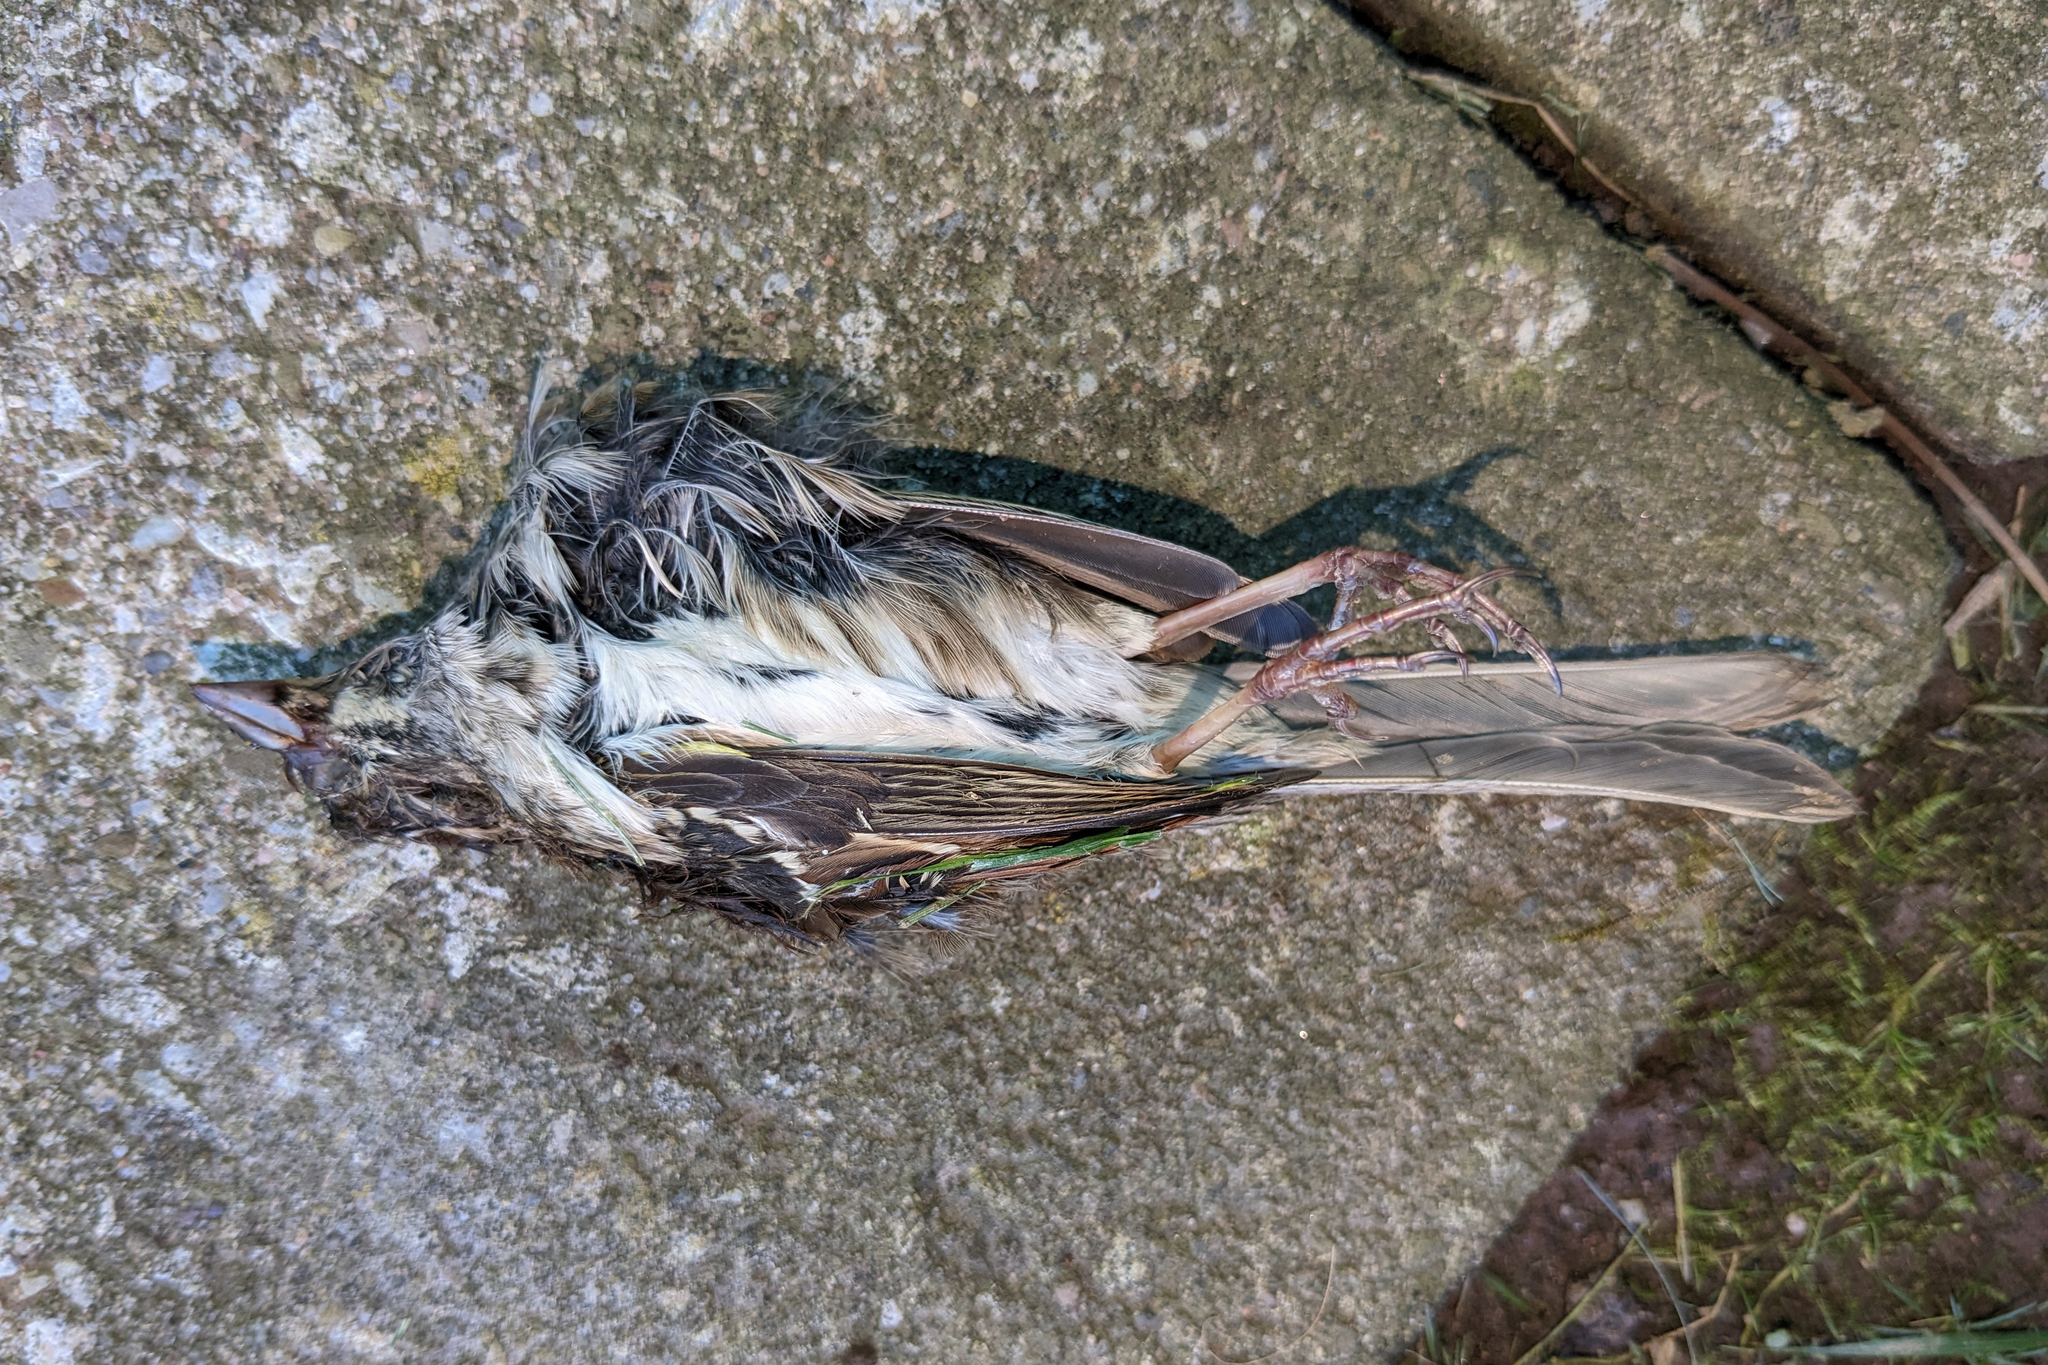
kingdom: Animalia
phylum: Chordata
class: Aves
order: Passeriformes
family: Passerellidae
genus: Zonotrichia
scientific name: Zonotrichia albicollis
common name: White-throated sparrow
